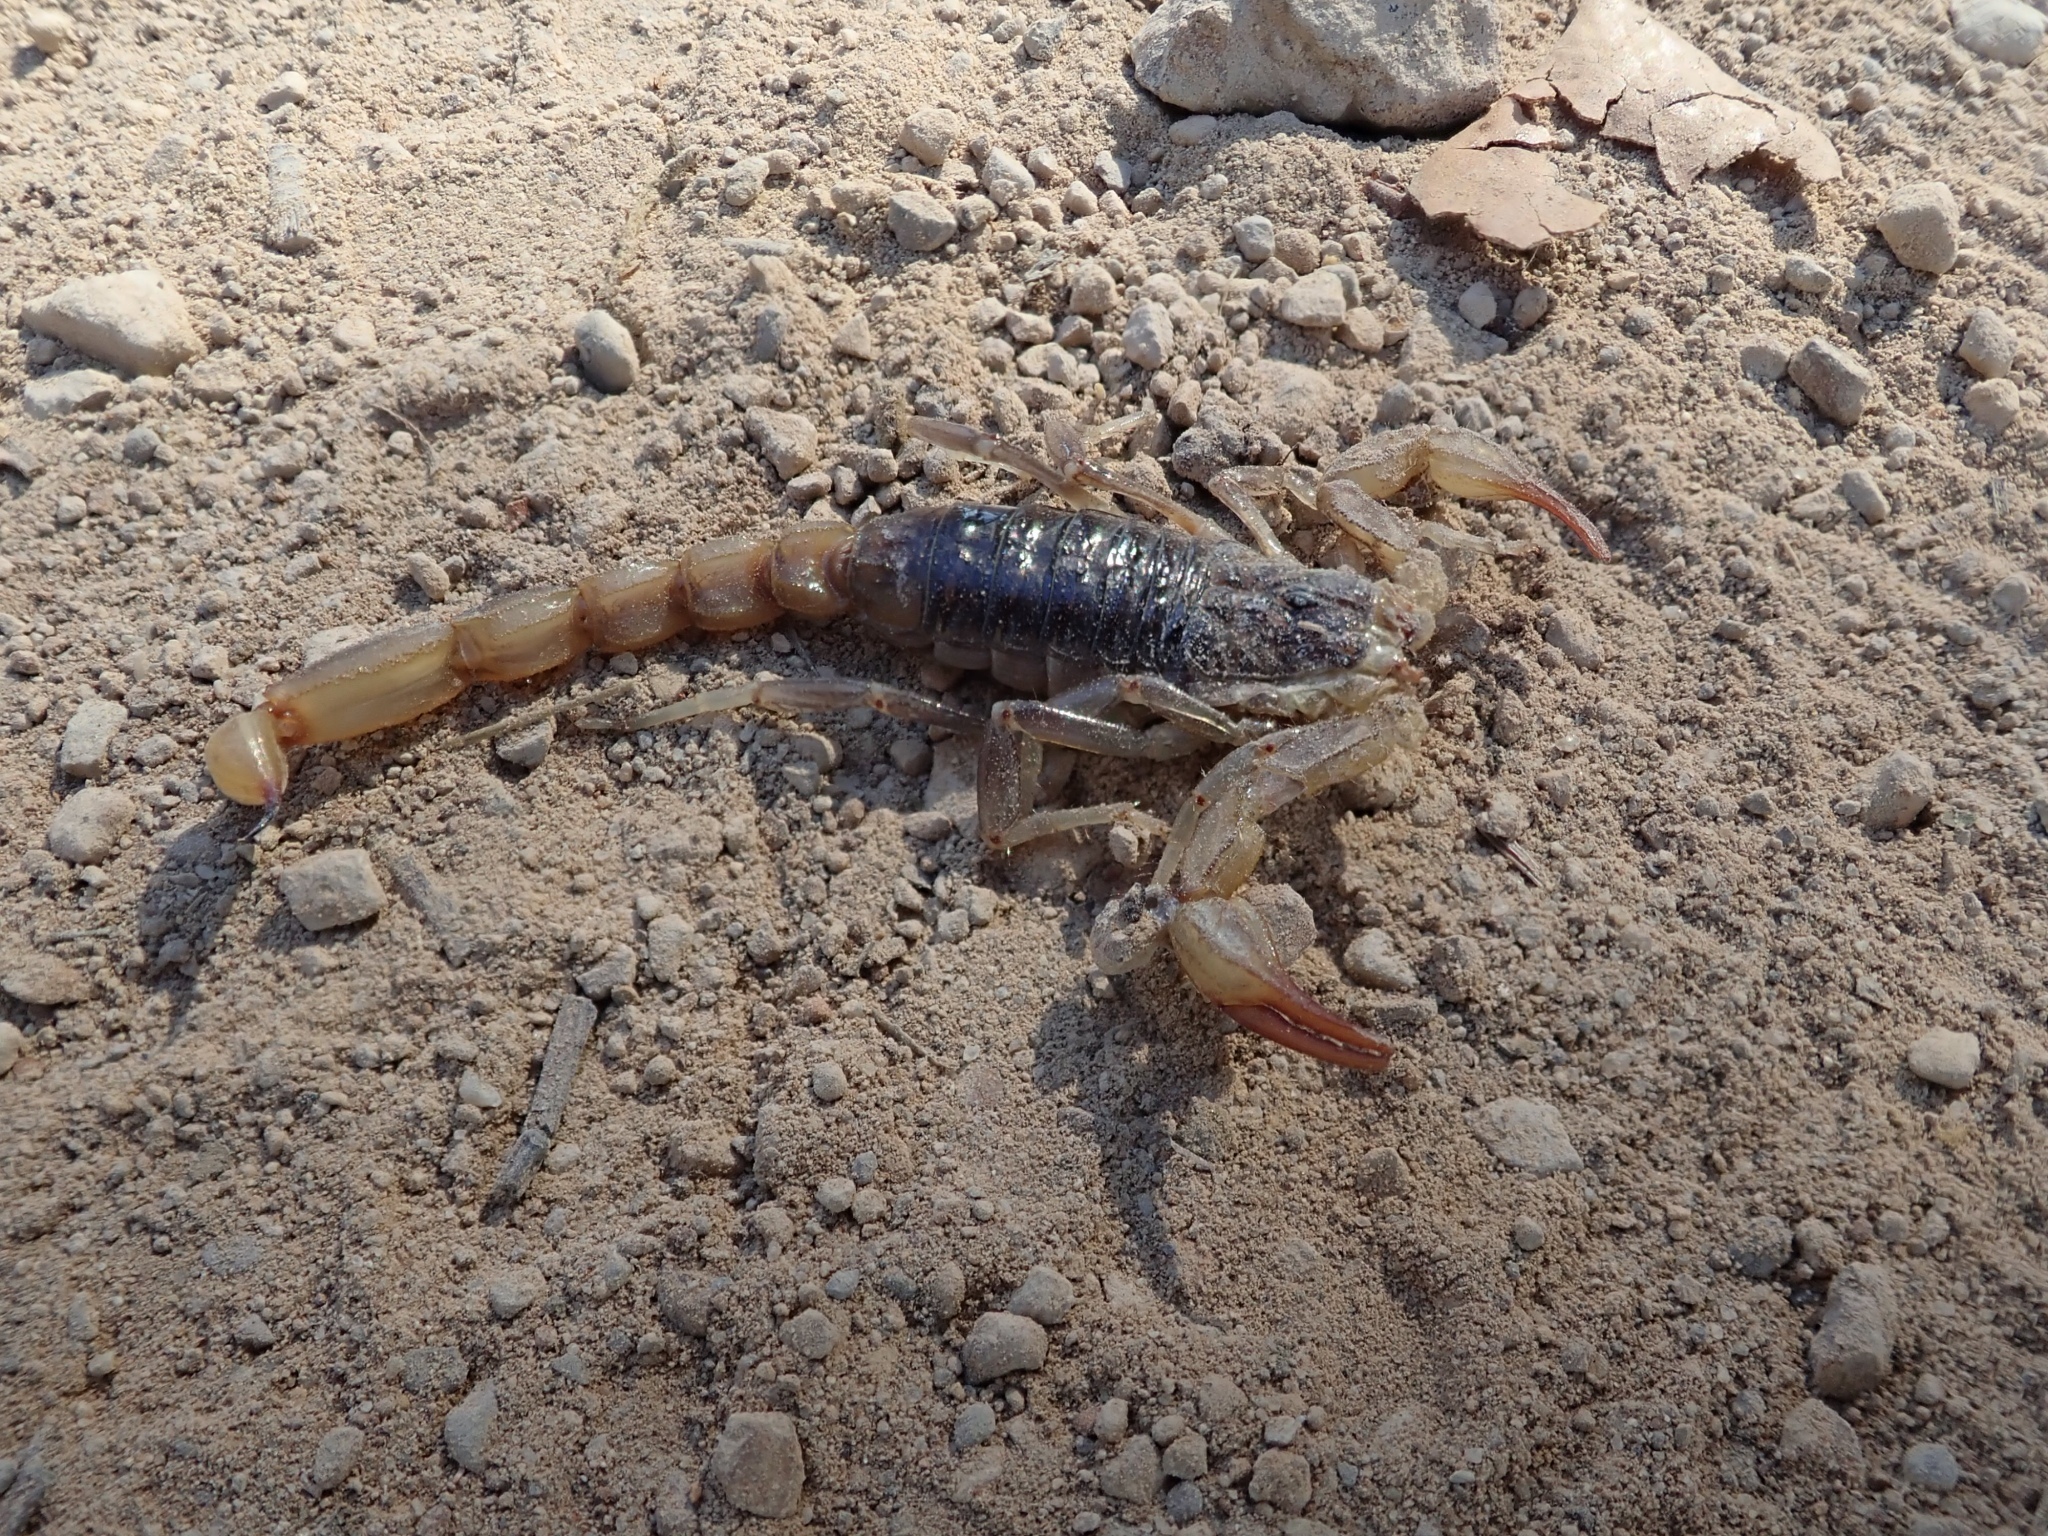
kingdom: Animalia
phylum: Arthropoda
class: Arachnida
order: Scorpiones
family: Vaejovidae
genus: Paruroctonus
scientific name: Paruroctonus silvestrii
